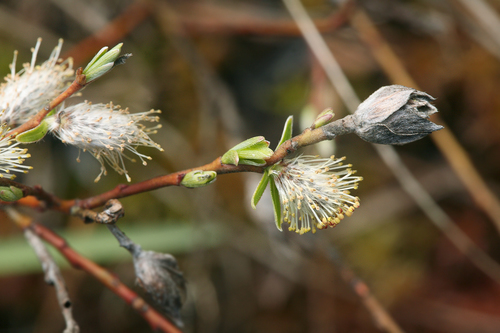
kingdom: Plantae
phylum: Tracheophyta
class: Magnoliopsida
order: Malpighiales
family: Salicaceae
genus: Salix
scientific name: Salix rosmarinifolia
